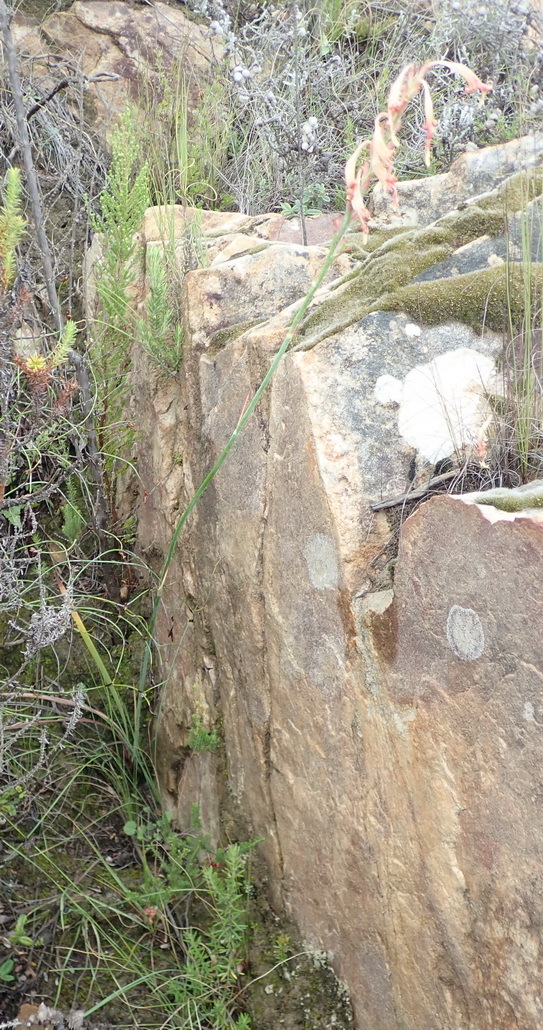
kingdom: Plantae
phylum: Tracheophyta
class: Liliopsida
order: Asparagales
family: Iridaceae
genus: Tritoniopsis
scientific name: Tritoniopsis antholyza
